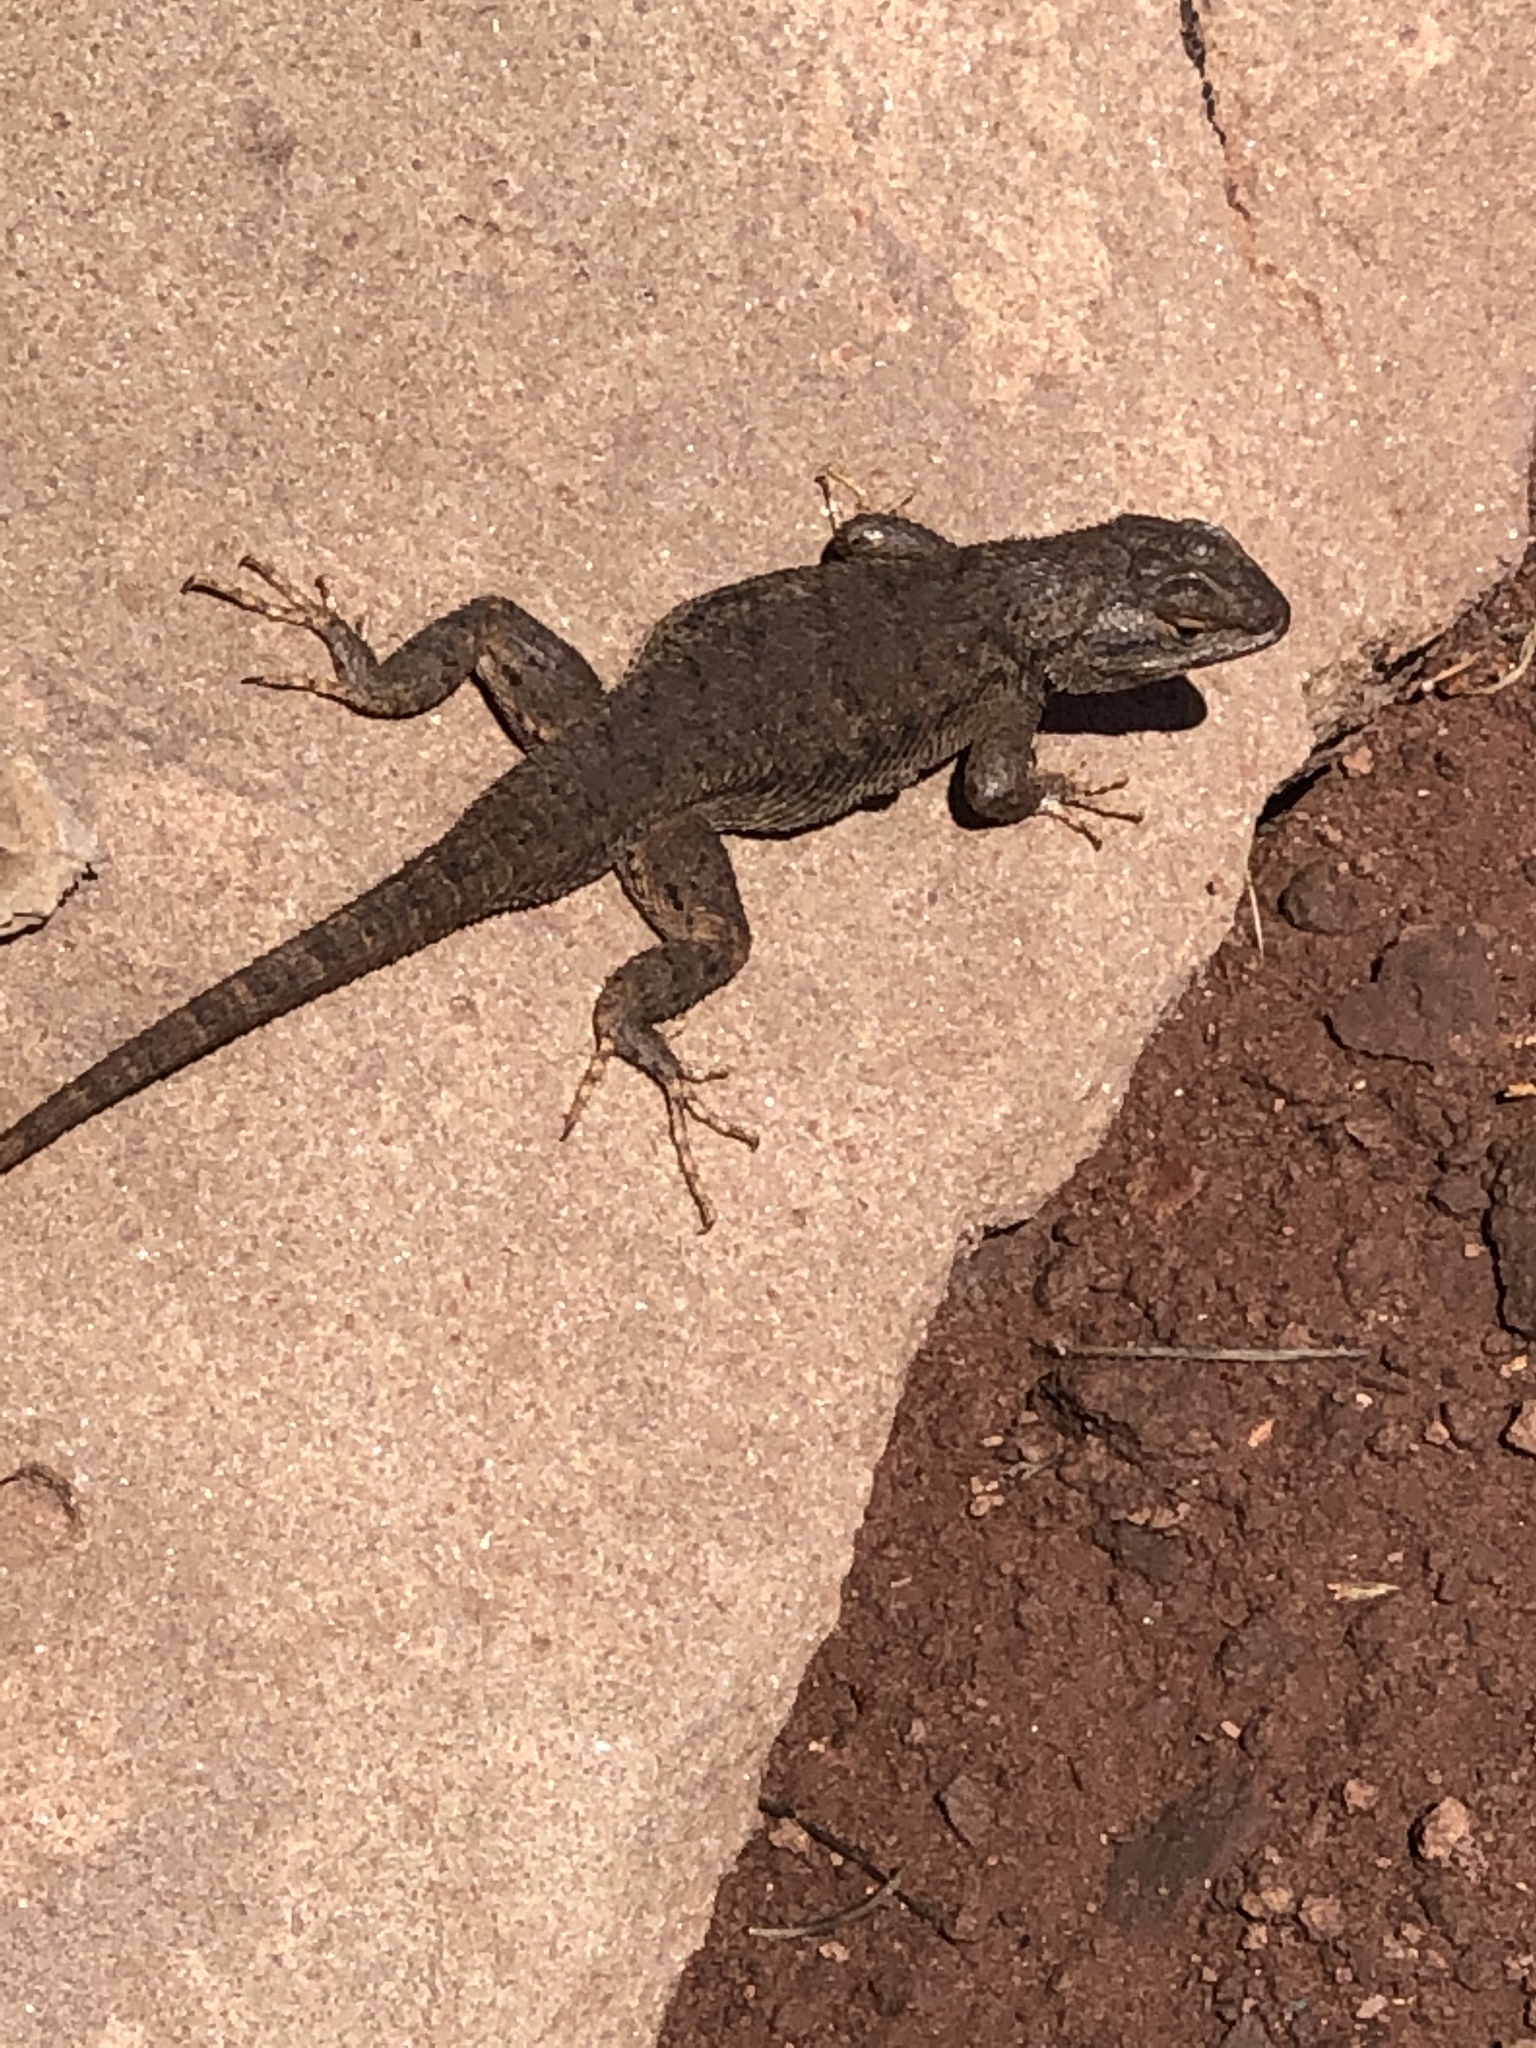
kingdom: Animalia
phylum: Chordata
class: Squamata
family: Phrynosomatidae
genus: Sceloporus
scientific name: Sceloporus tristichus
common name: Plateau fence lizard
